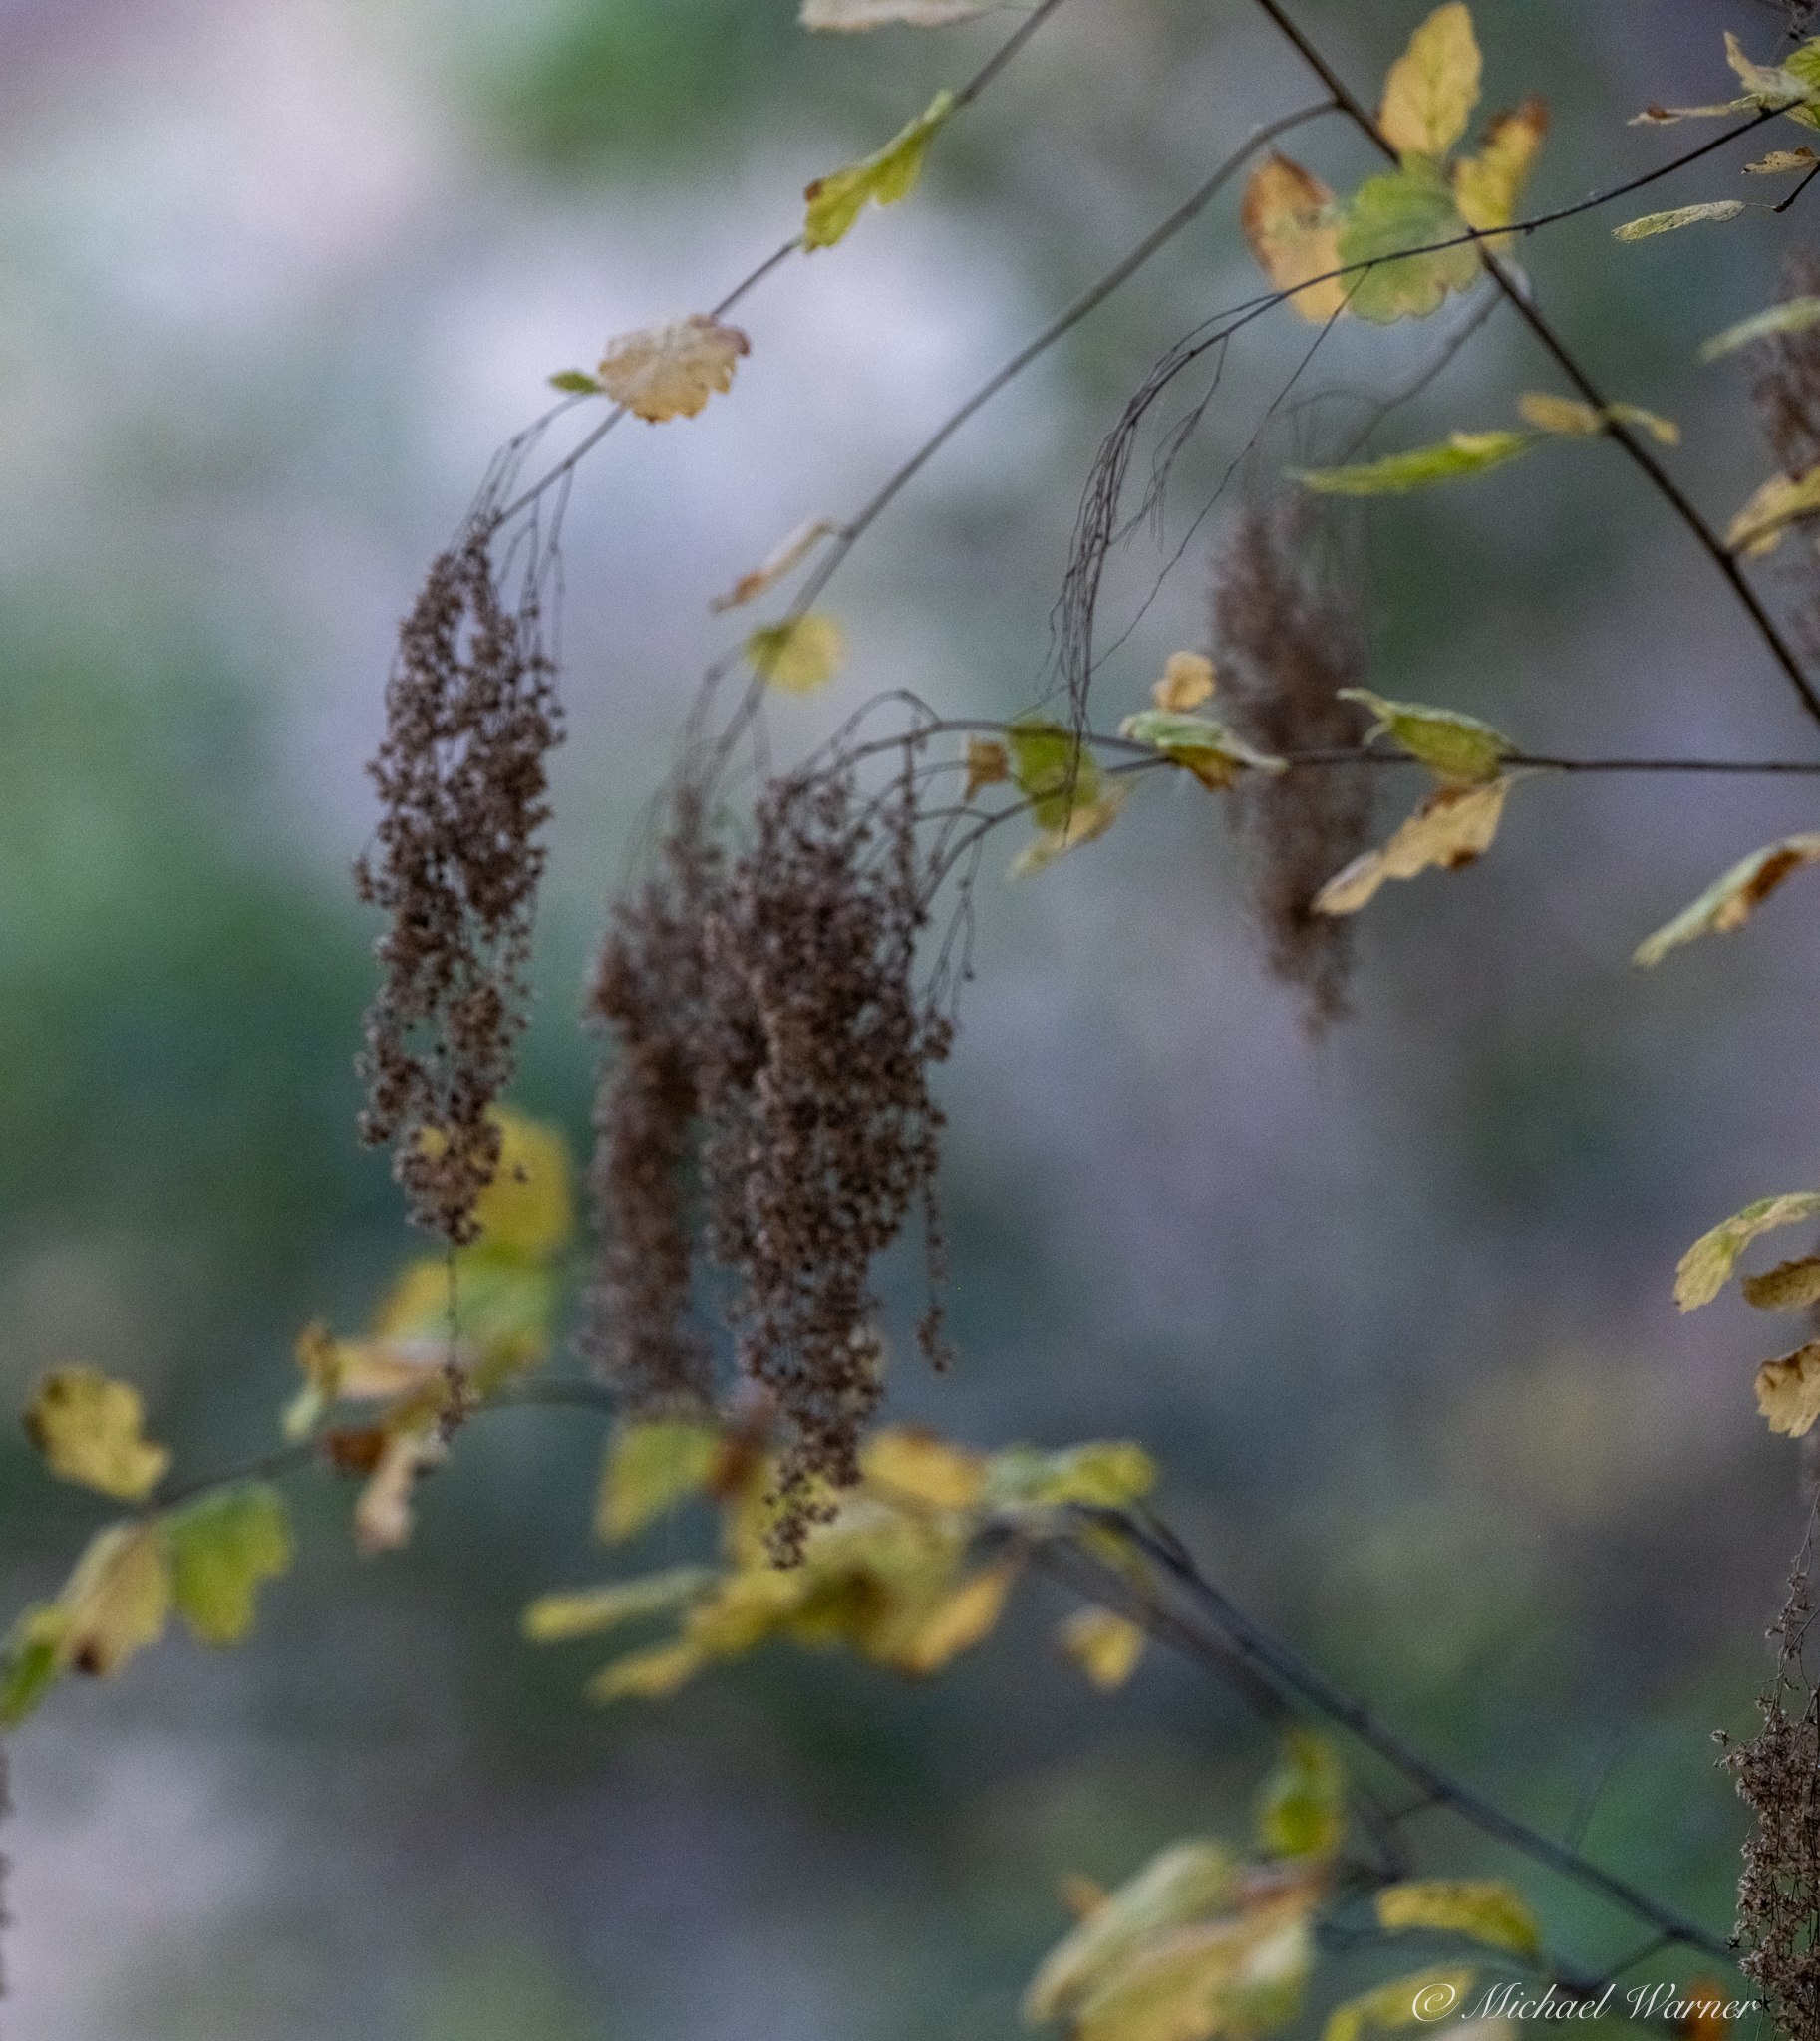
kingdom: Plantae
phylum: Tracheophyta
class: Magnoliopsida
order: Rosales
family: Rosaceae
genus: Holodiscus
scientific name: Holodiscus discolor
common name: Oceanspray
